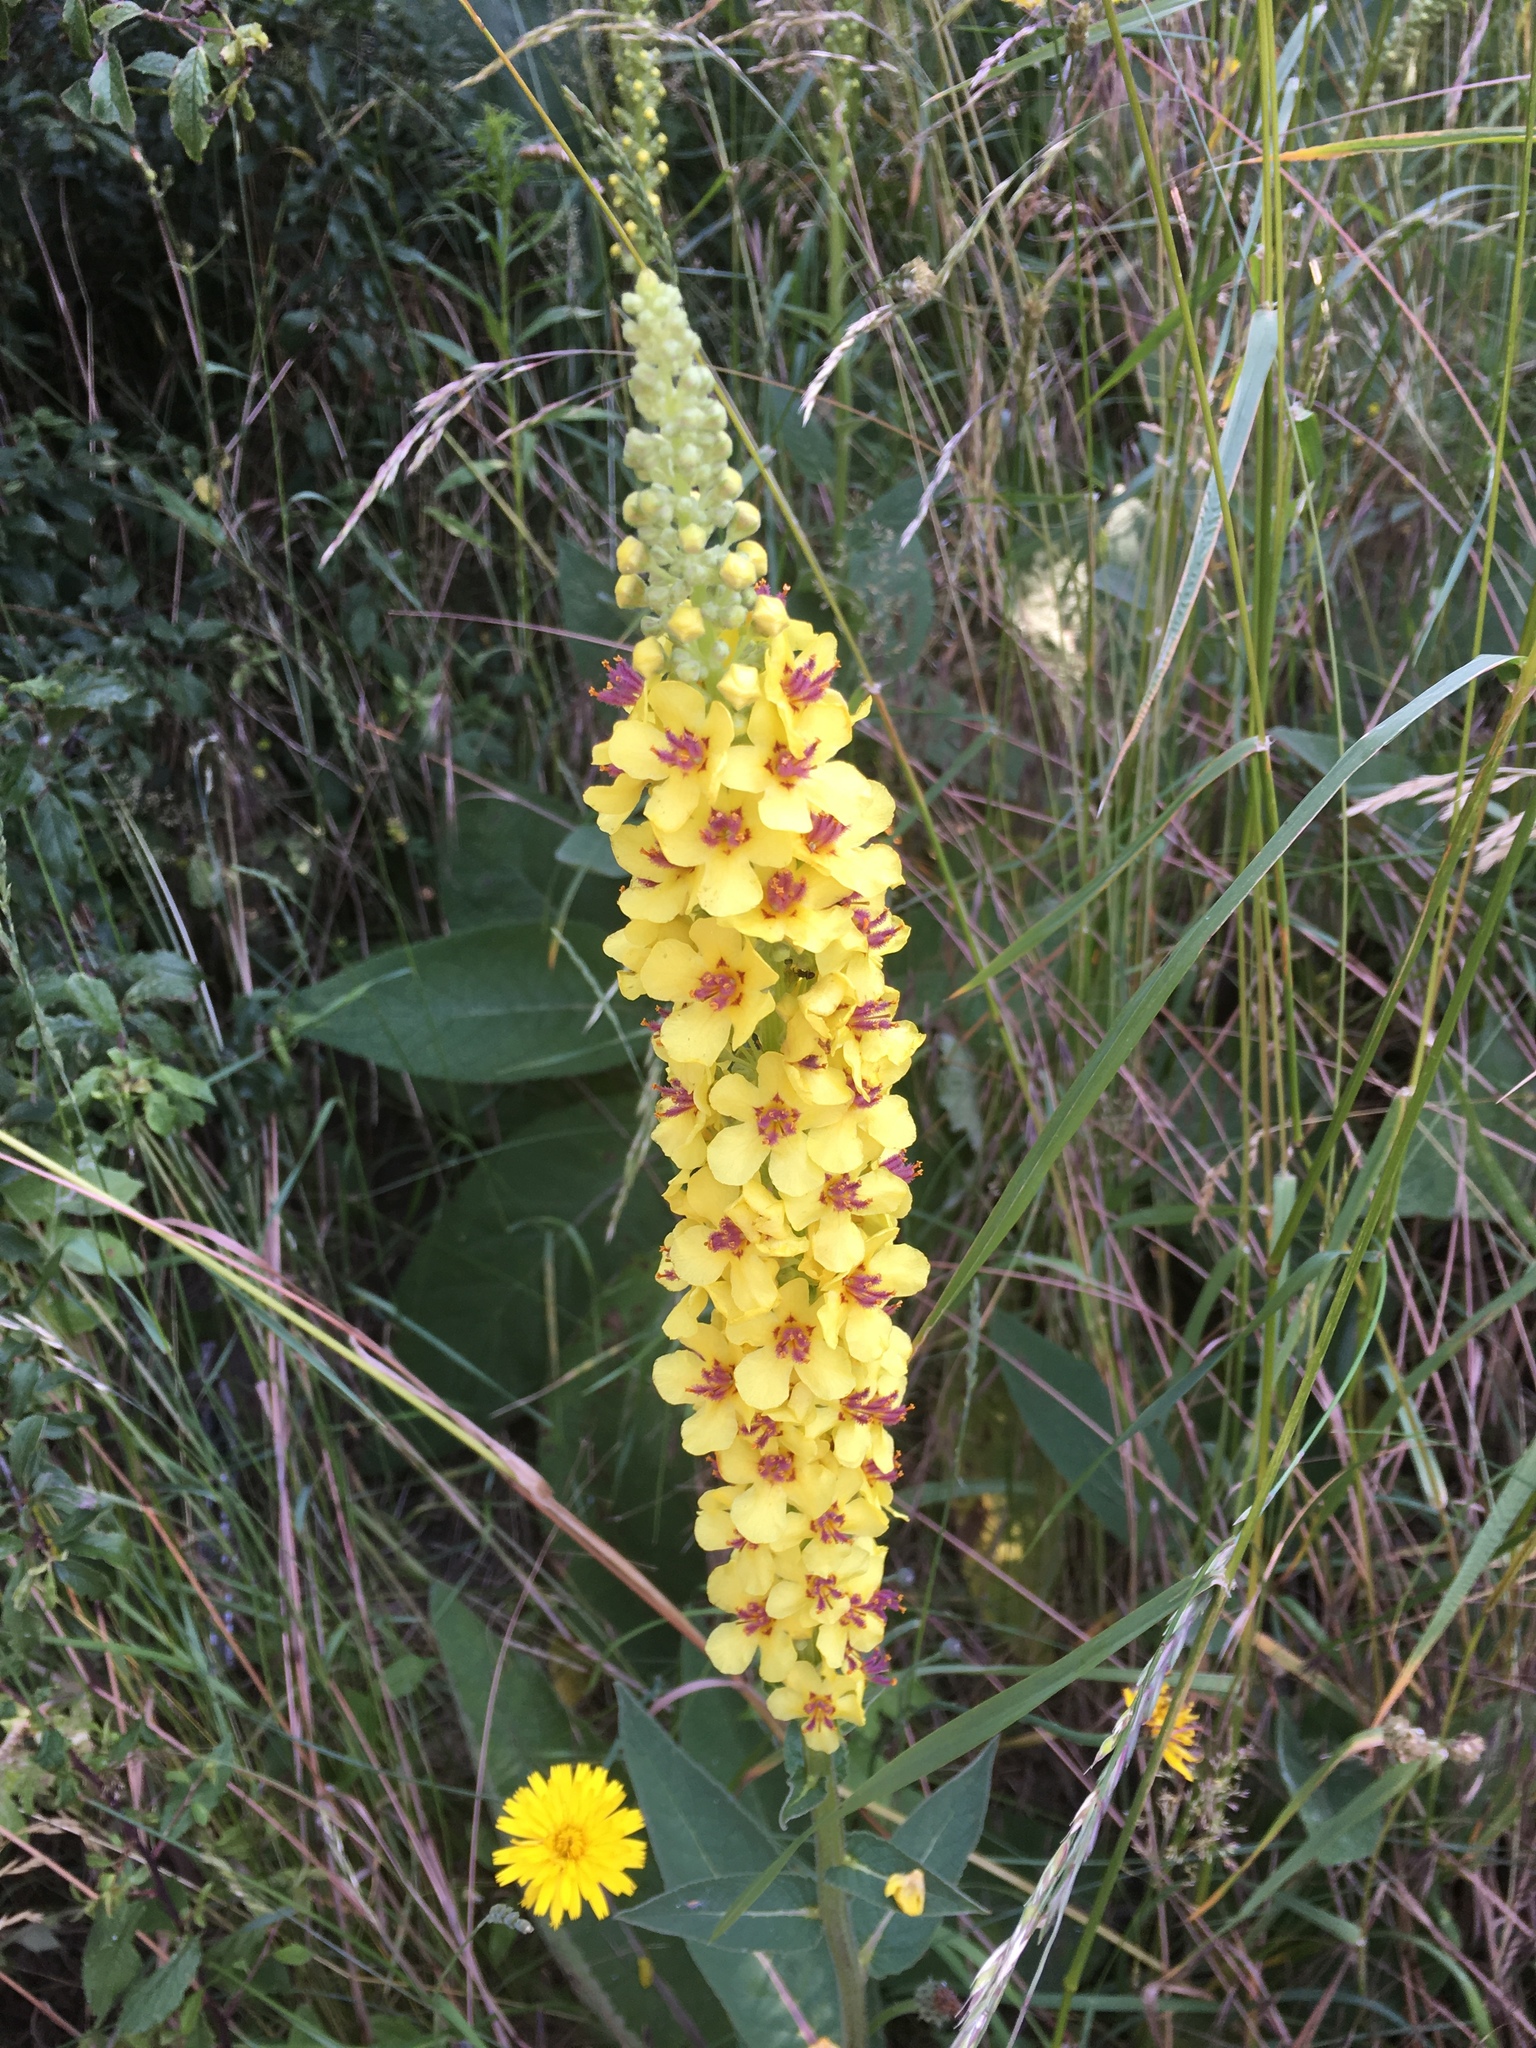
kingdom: Plantae
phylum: Tracheophyta
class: Magnoliopsida
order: Lamiales
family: Scrophulariaceae
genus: Verbascum
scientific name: Verbascum nigrum
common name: Dark mullein
